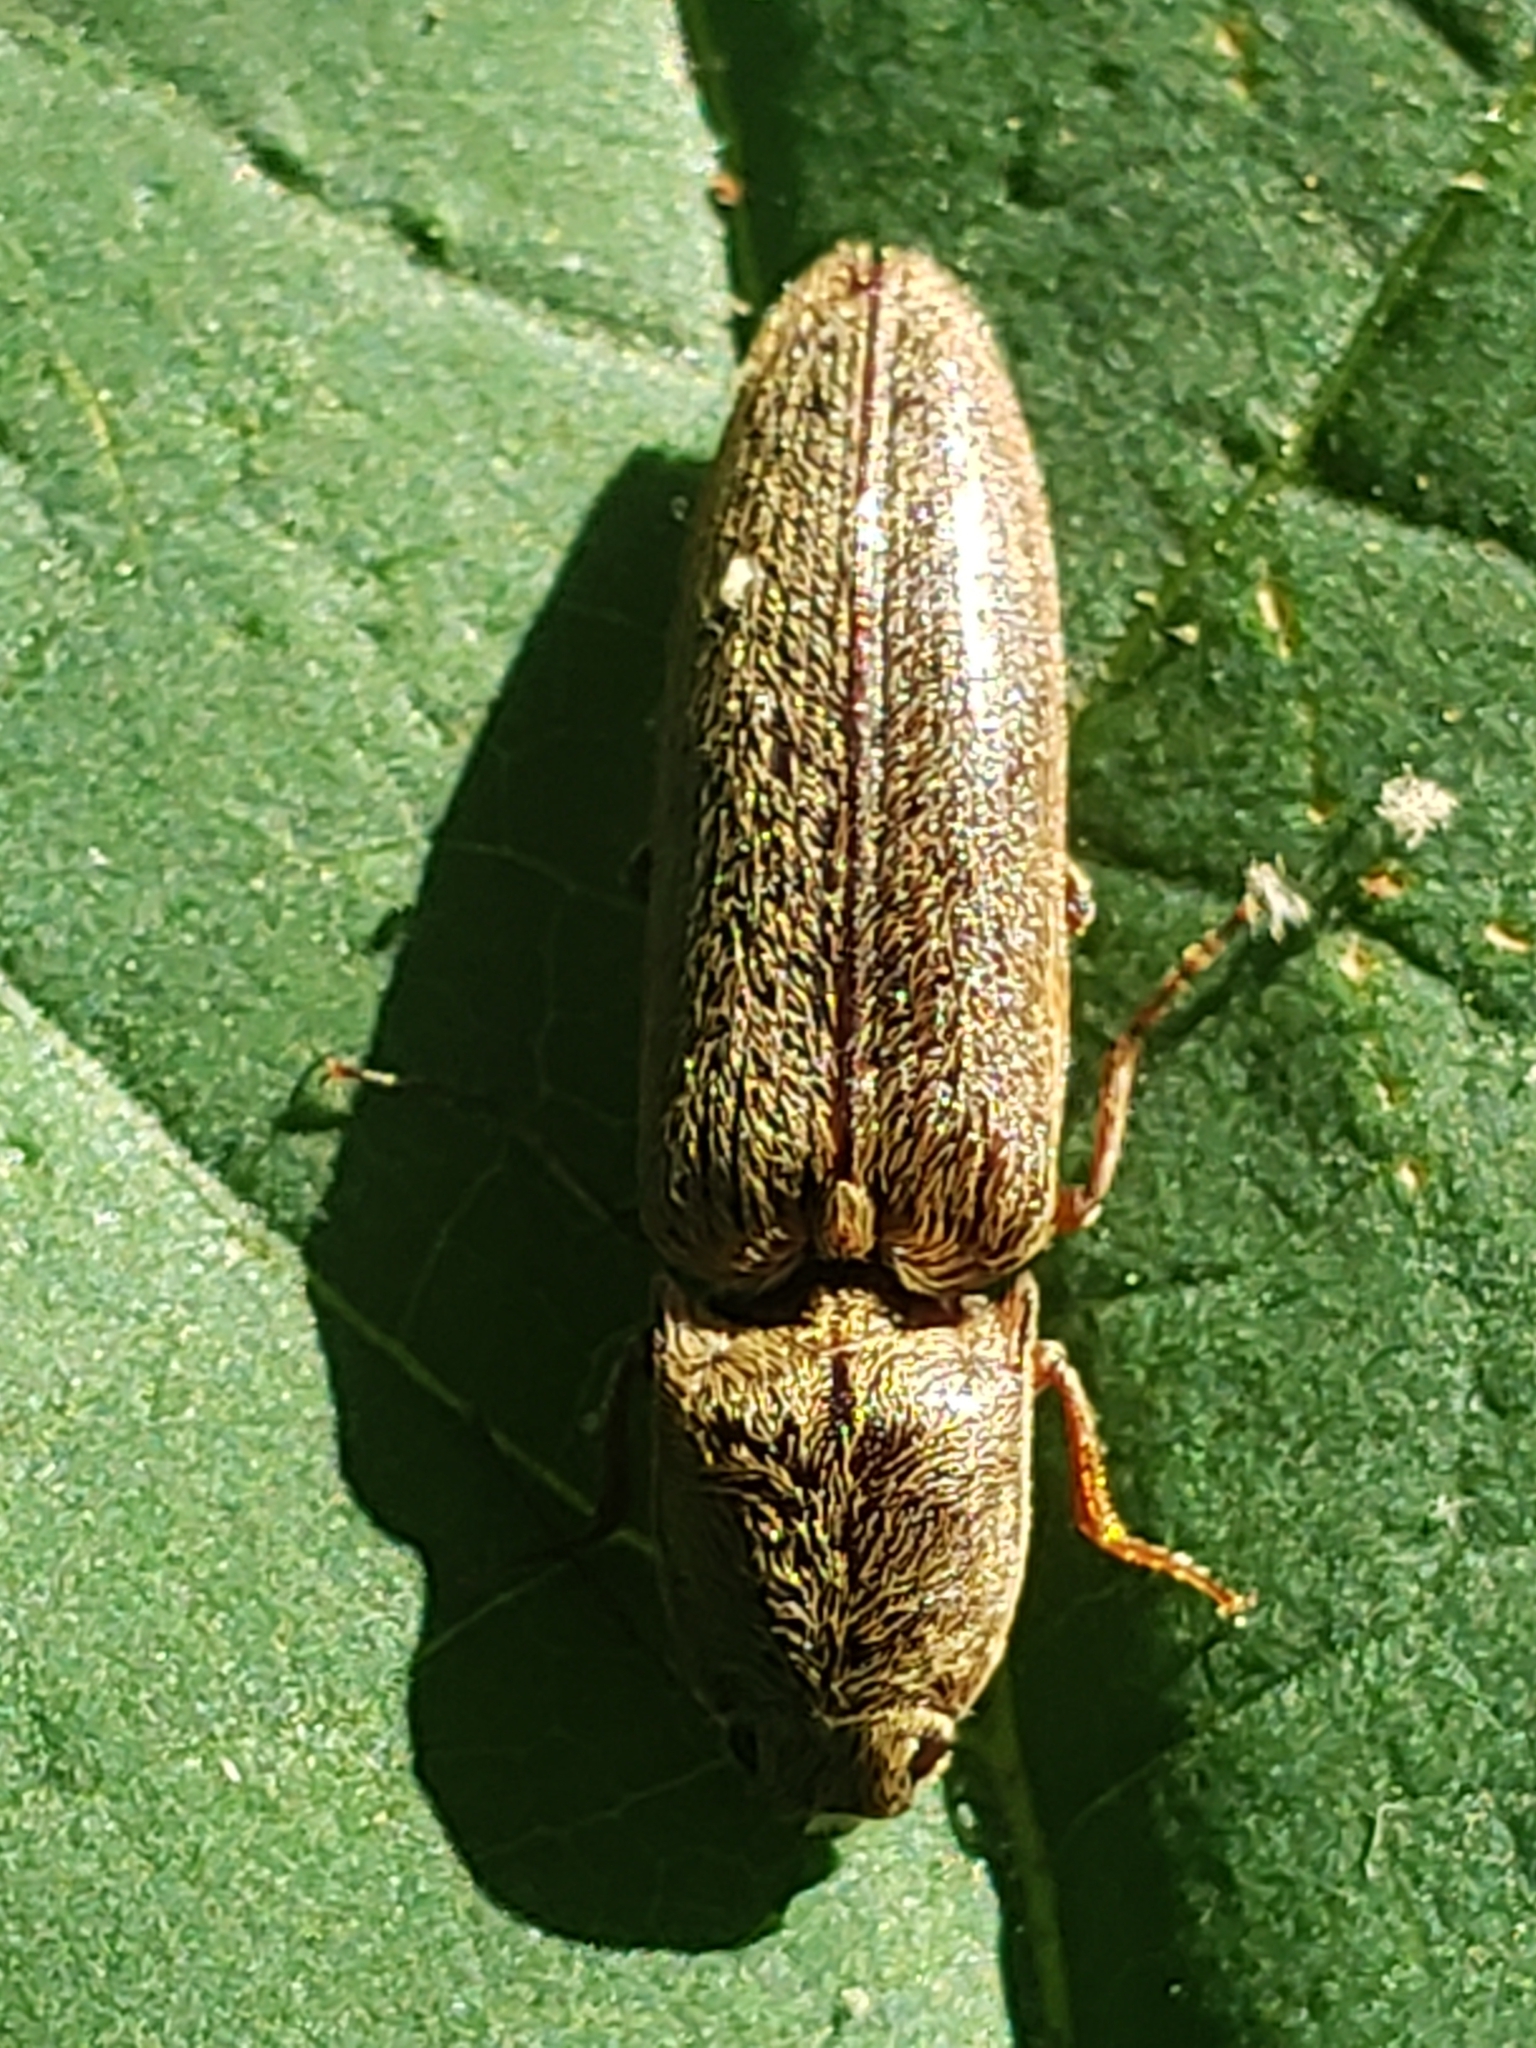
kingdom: Animalia
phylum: Arthropoda
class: Insecta
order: Coleoptera
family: Elateridae
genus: Gambrinus
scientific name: Gambrinus griseus
